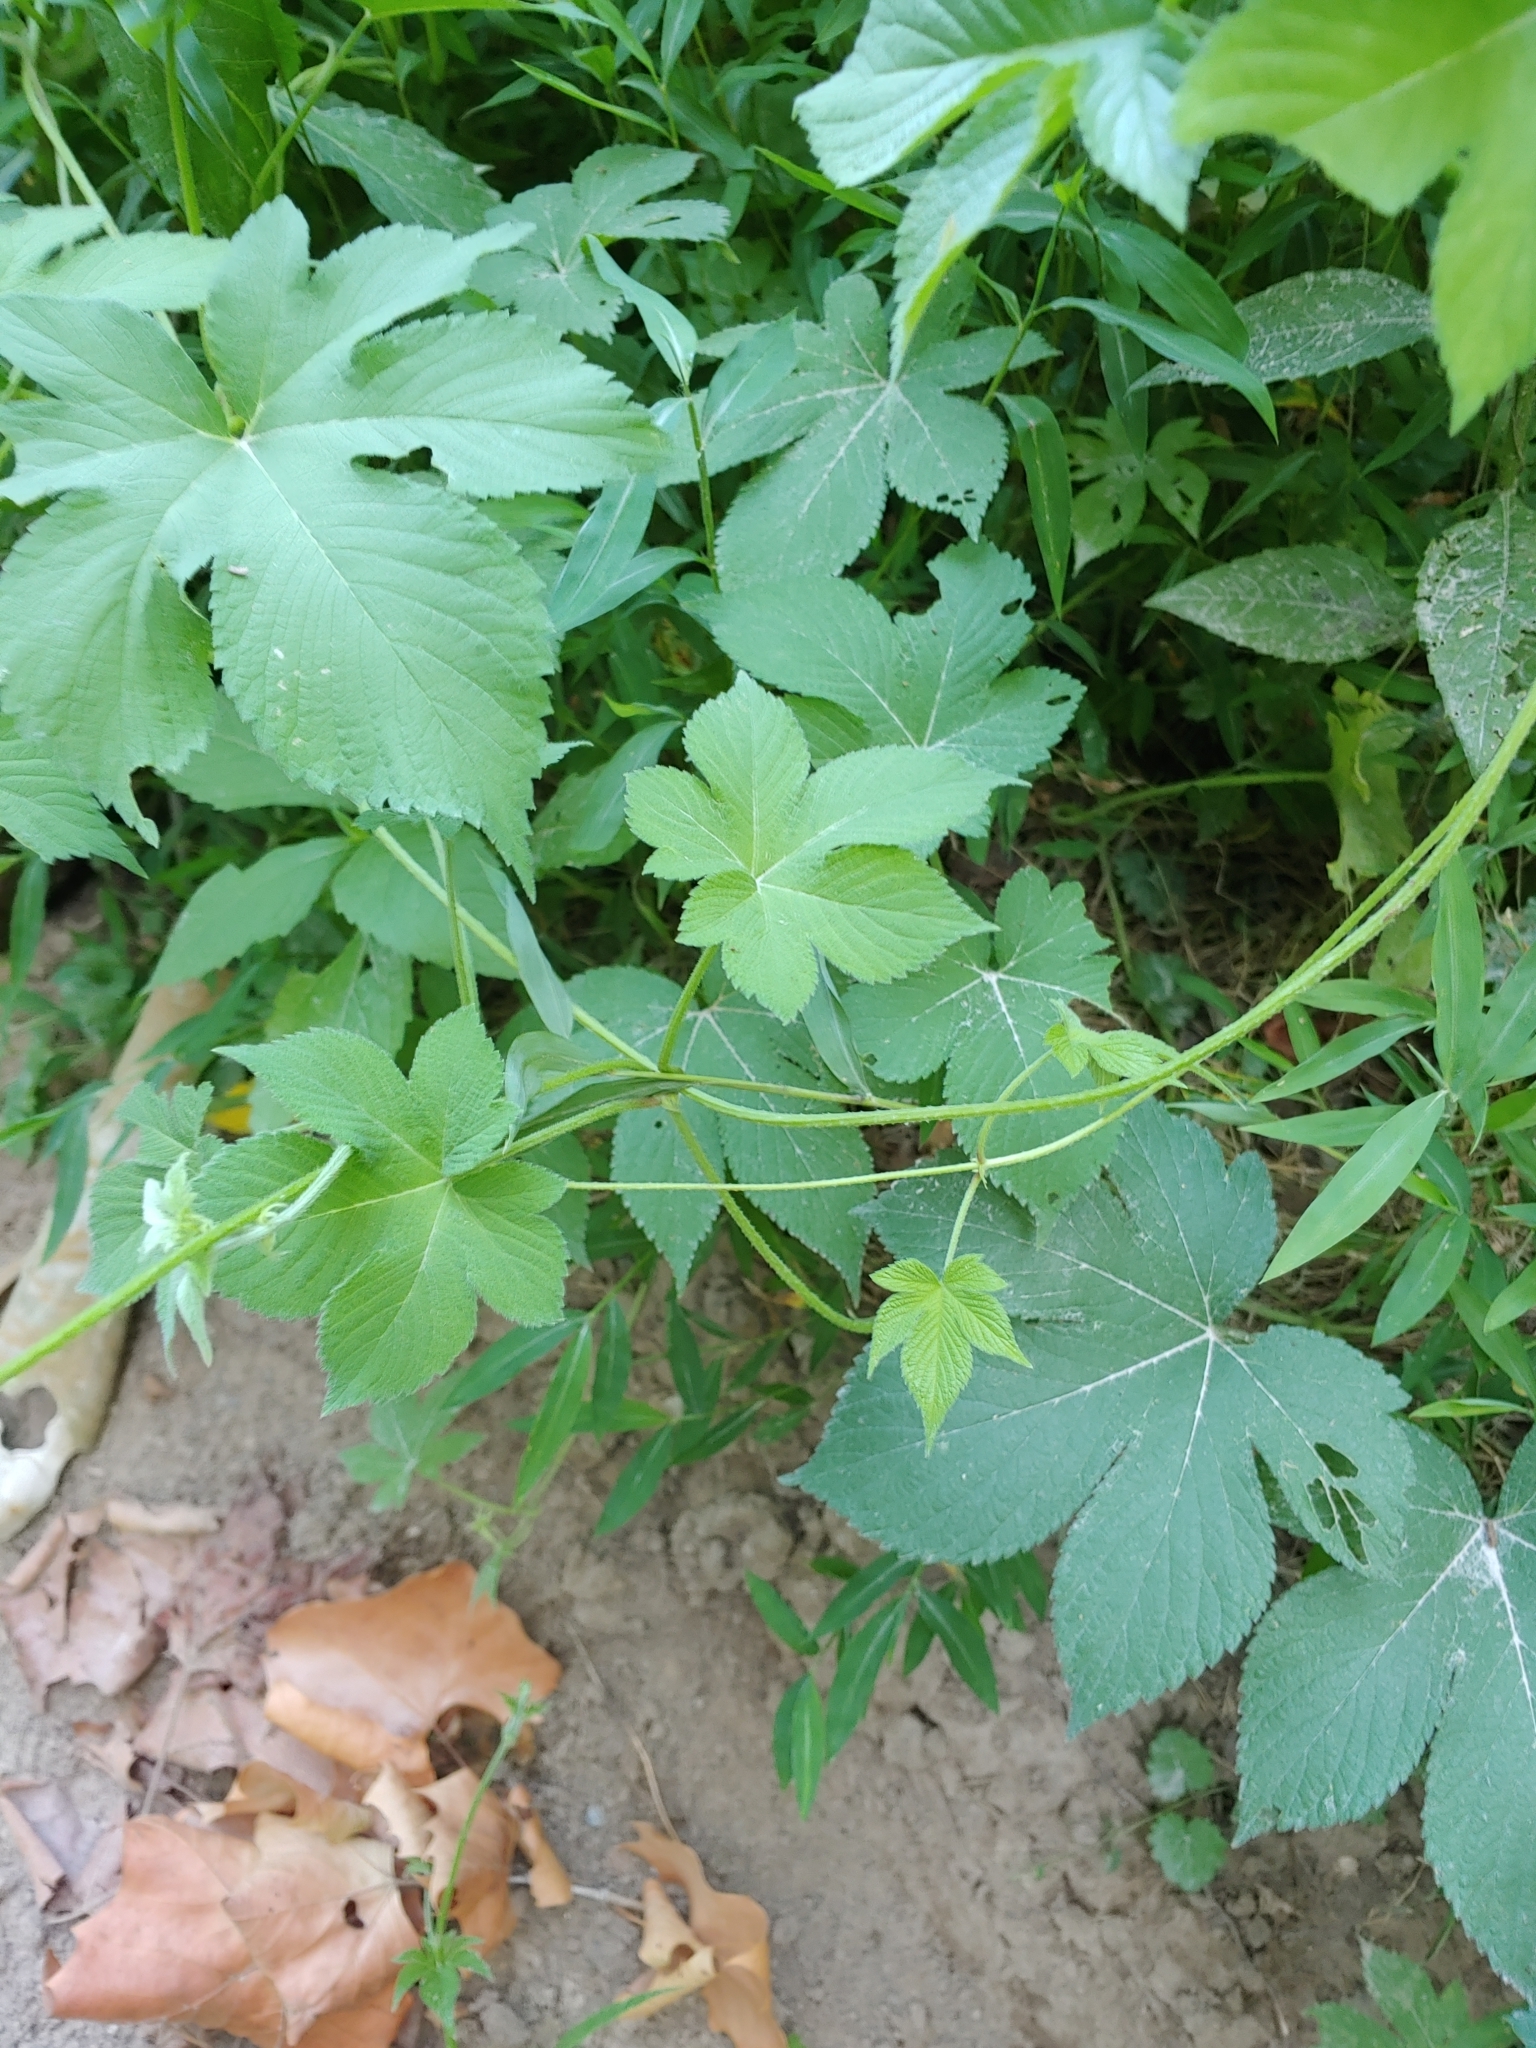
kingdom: Plantae
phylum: Tracheophyta
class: Magnoliopsida
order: Rosales
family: Cannabaceae
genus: Humulus
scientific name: Humulus scandens
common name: Japanese hop
